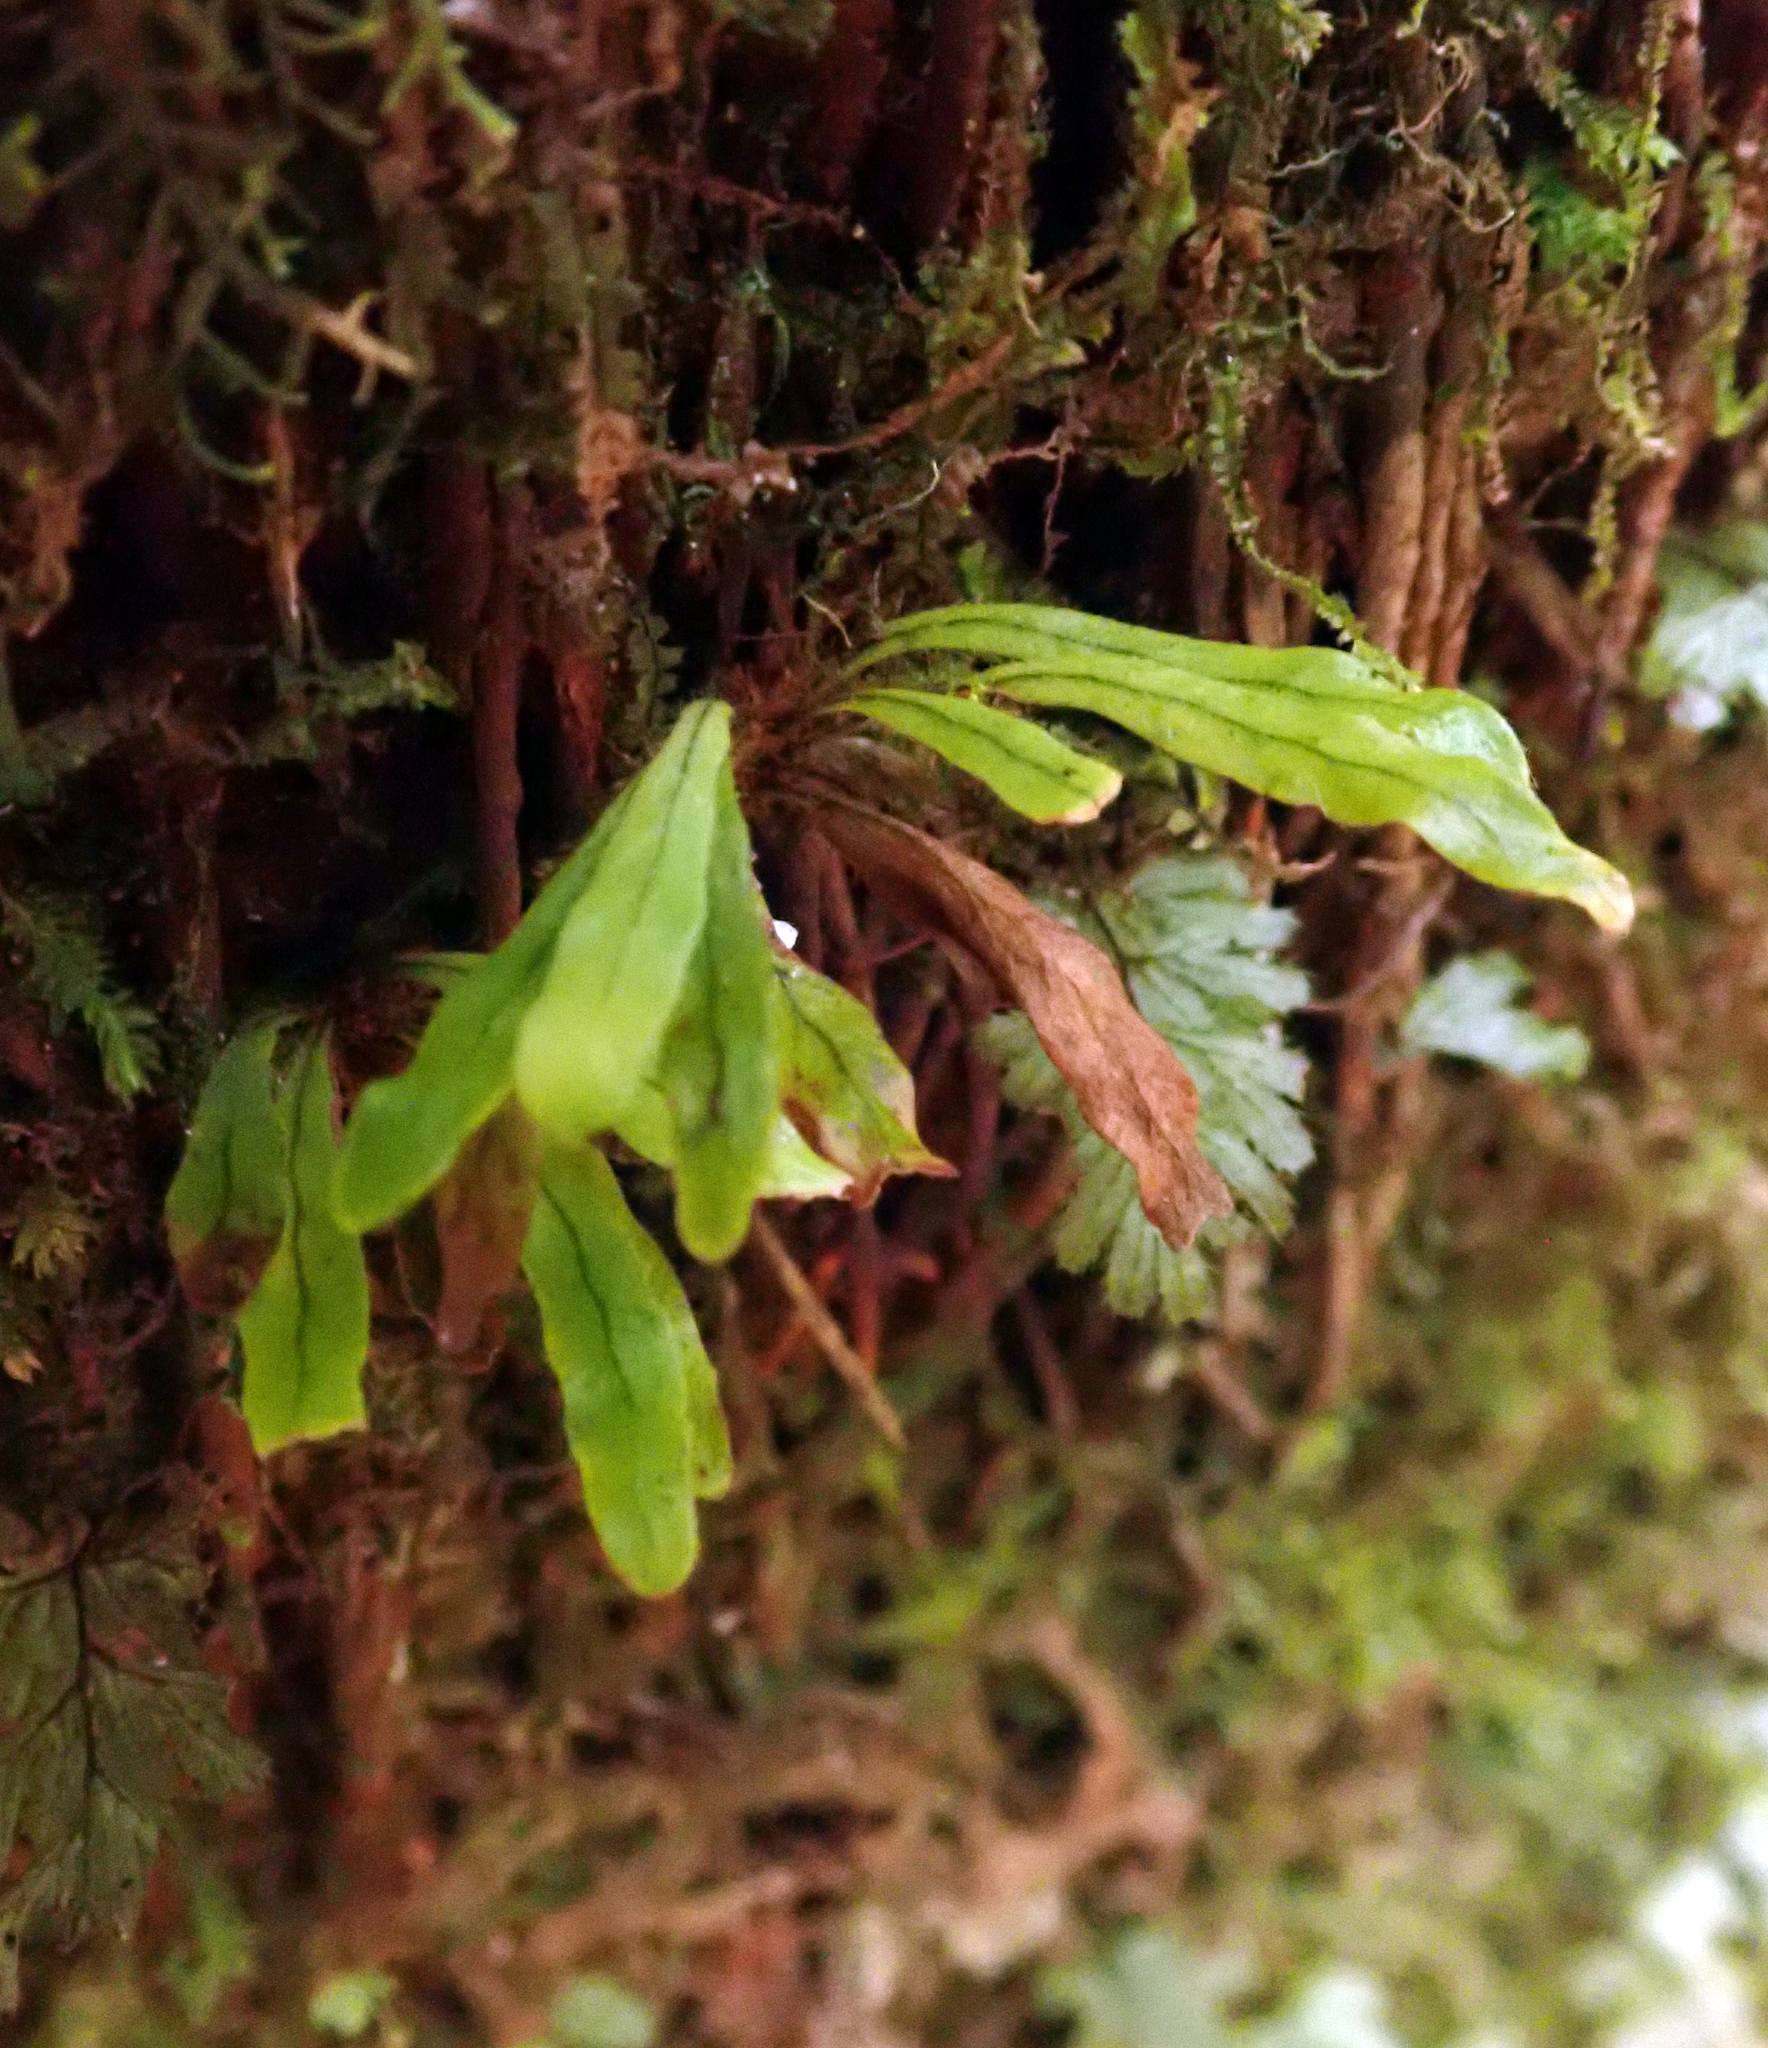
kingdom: Plantae
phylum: Tracheophyta
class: Polypodiopsida
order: Polypodiales
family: Polypodiaceae
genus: Notogrammitis
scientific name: Notogrammitis ciliata
